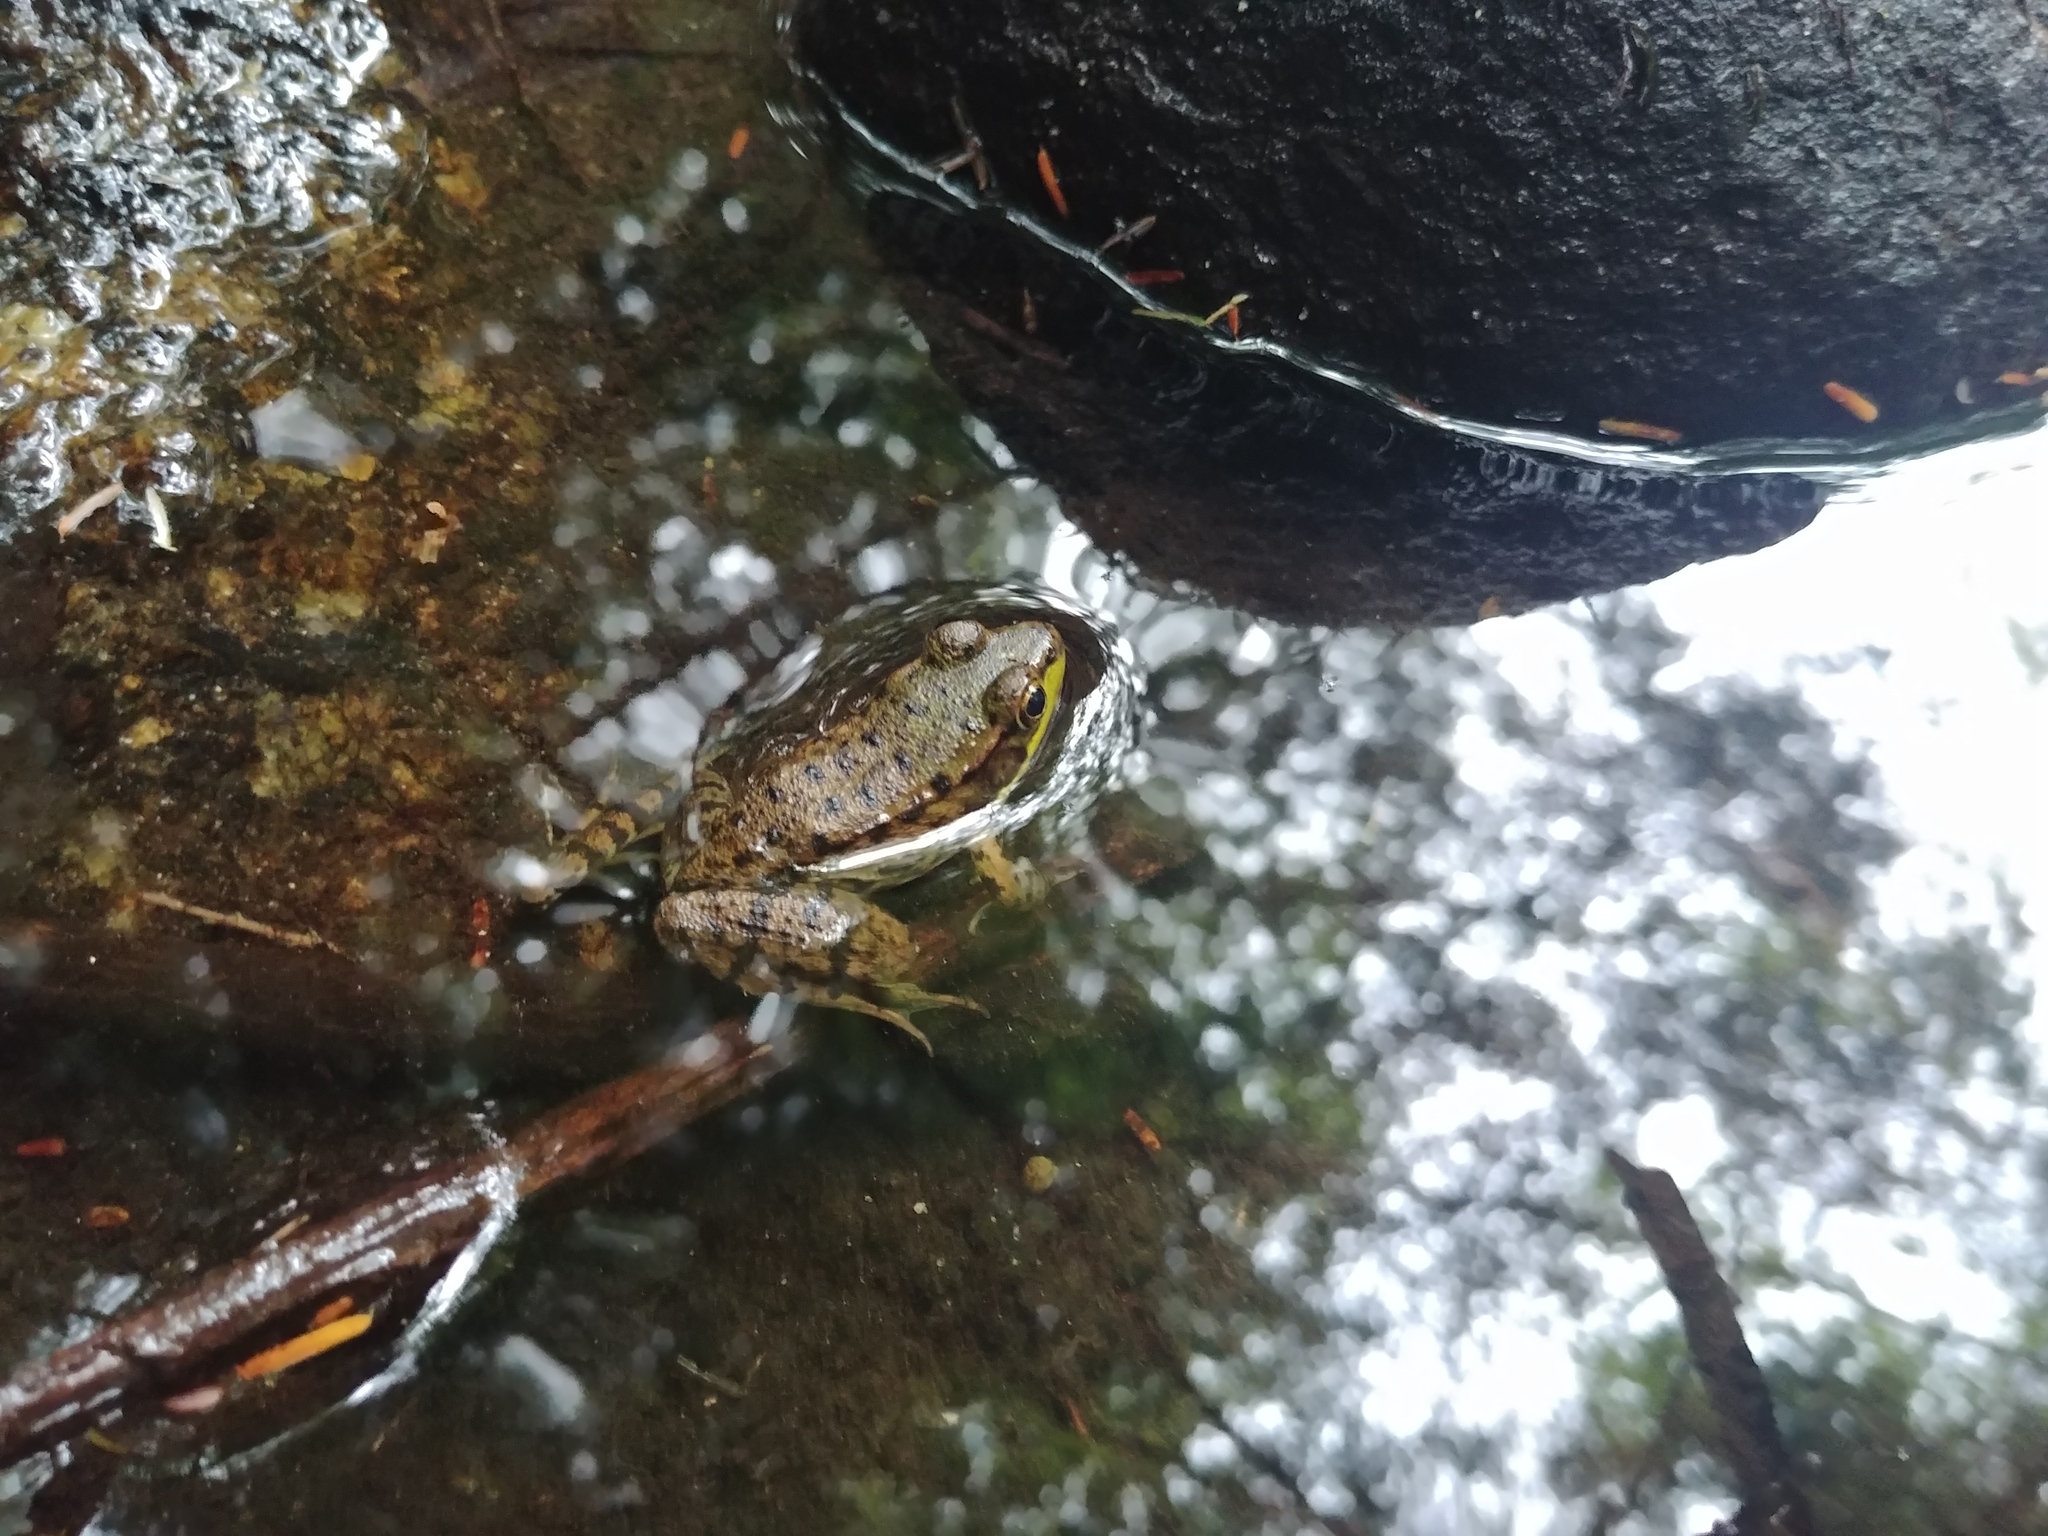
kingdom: Animalia
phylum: Chordata
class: Amphibia
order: Anura
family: Ranidae
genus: Lithobates
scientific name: Lithobates clamitans
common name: Green frog
